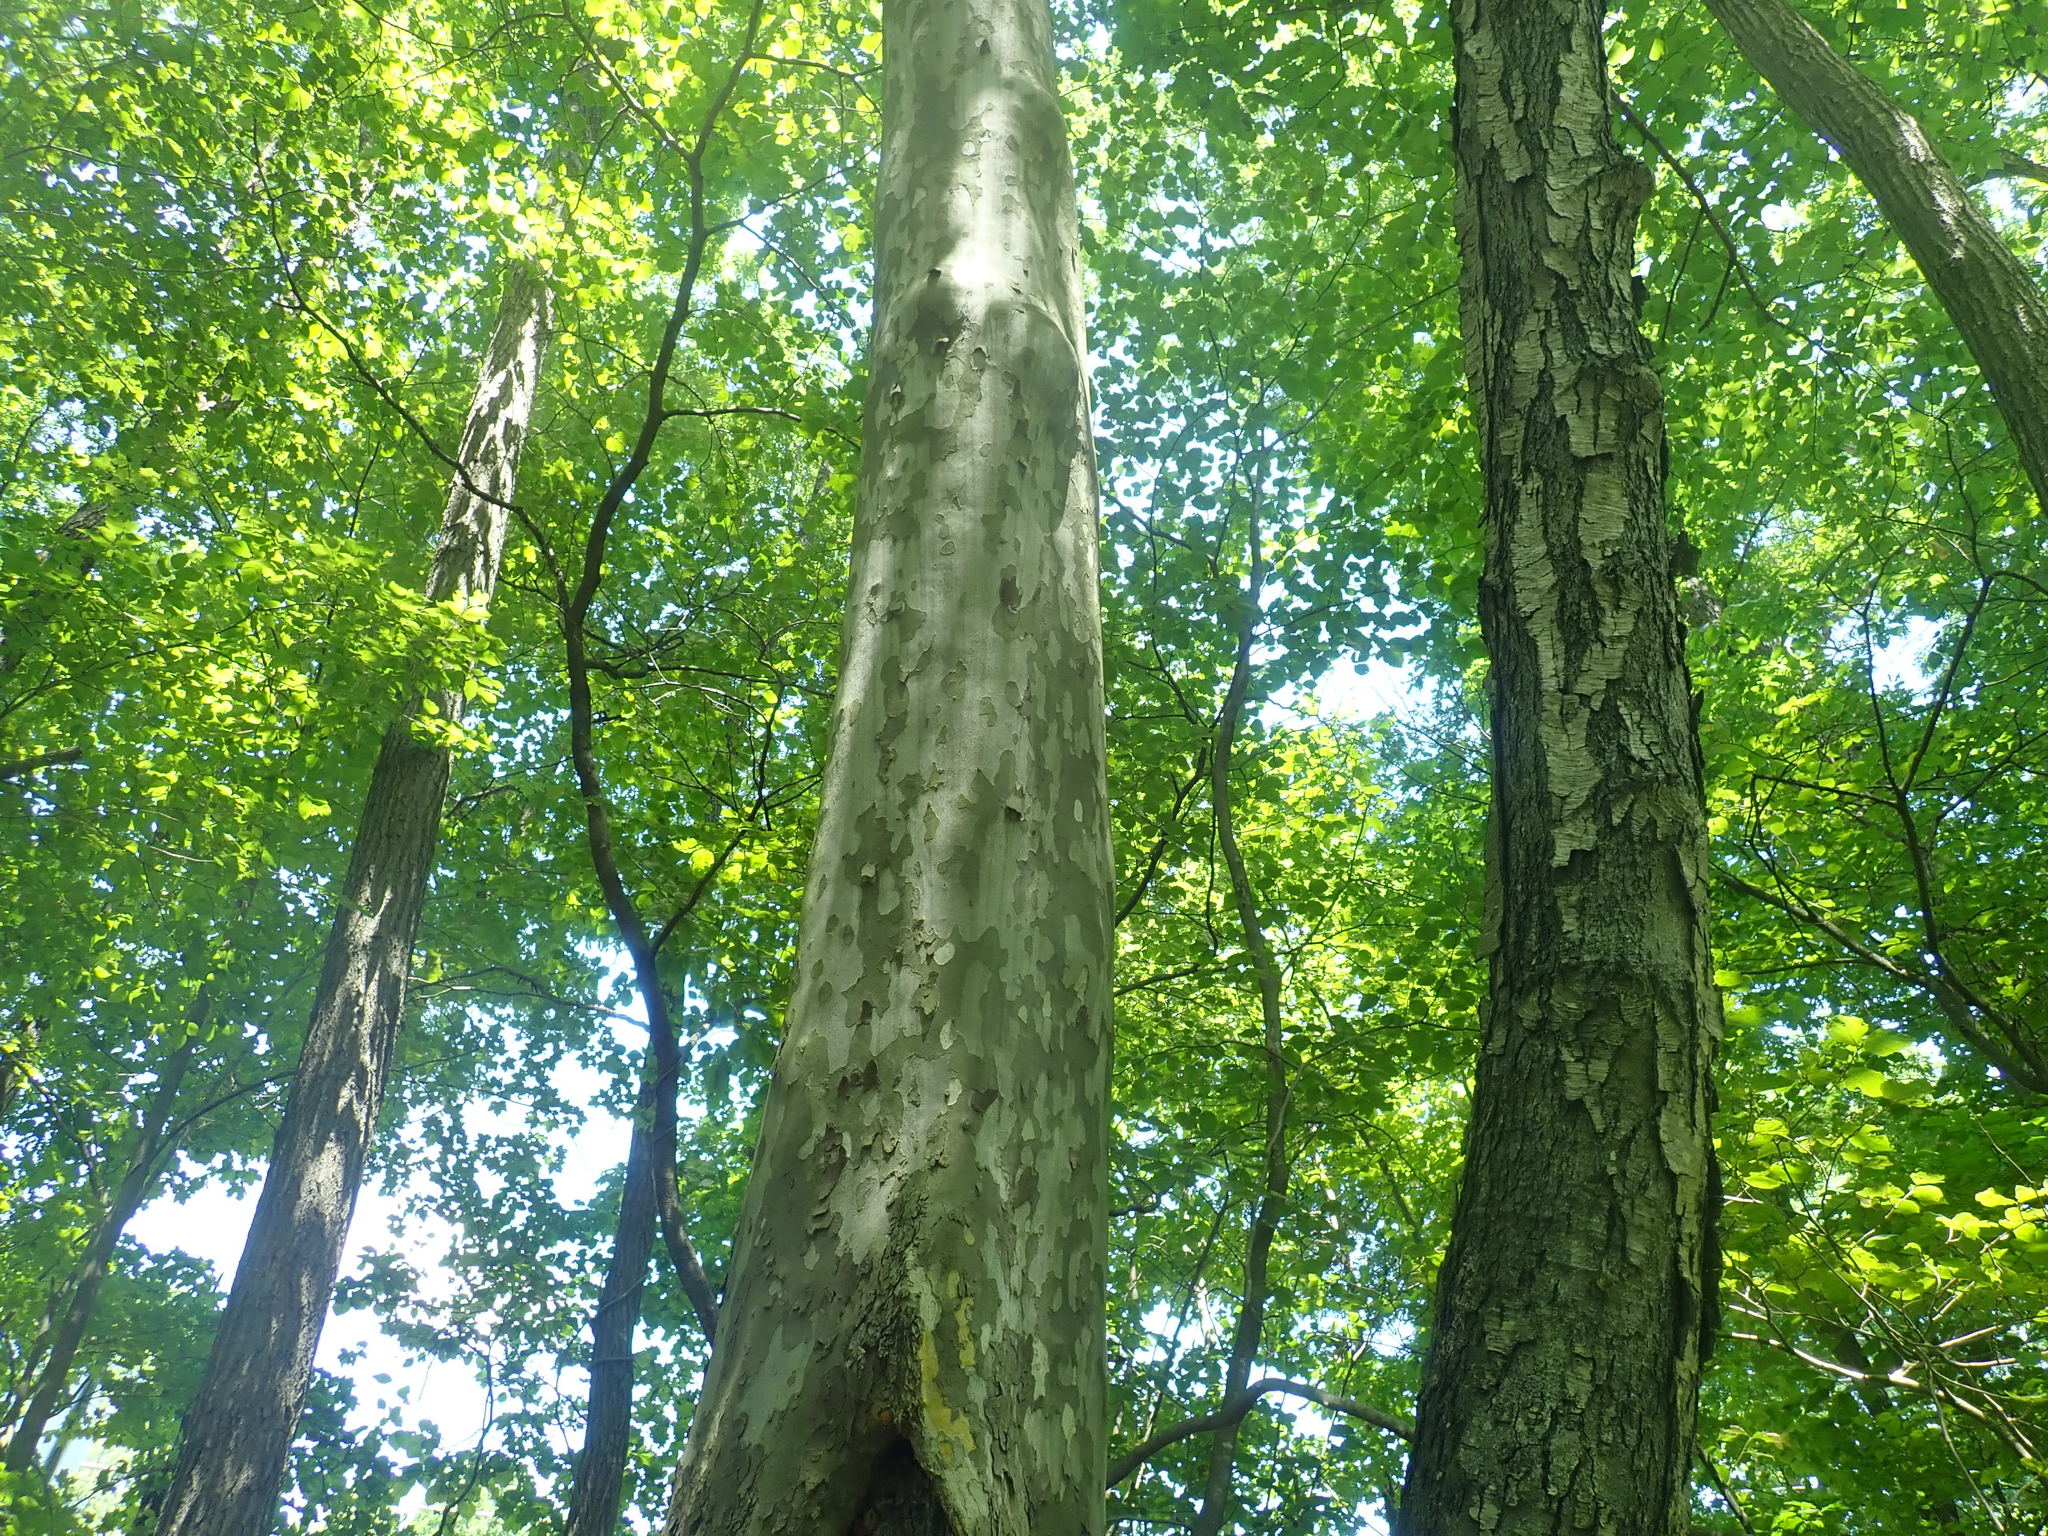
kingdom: Plantae
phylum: Tracheophyta
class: Magnoliopsida
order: Proteales
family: Platanaceae
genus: Platanus
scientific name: Platanus occidentalis
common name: American sycamore
